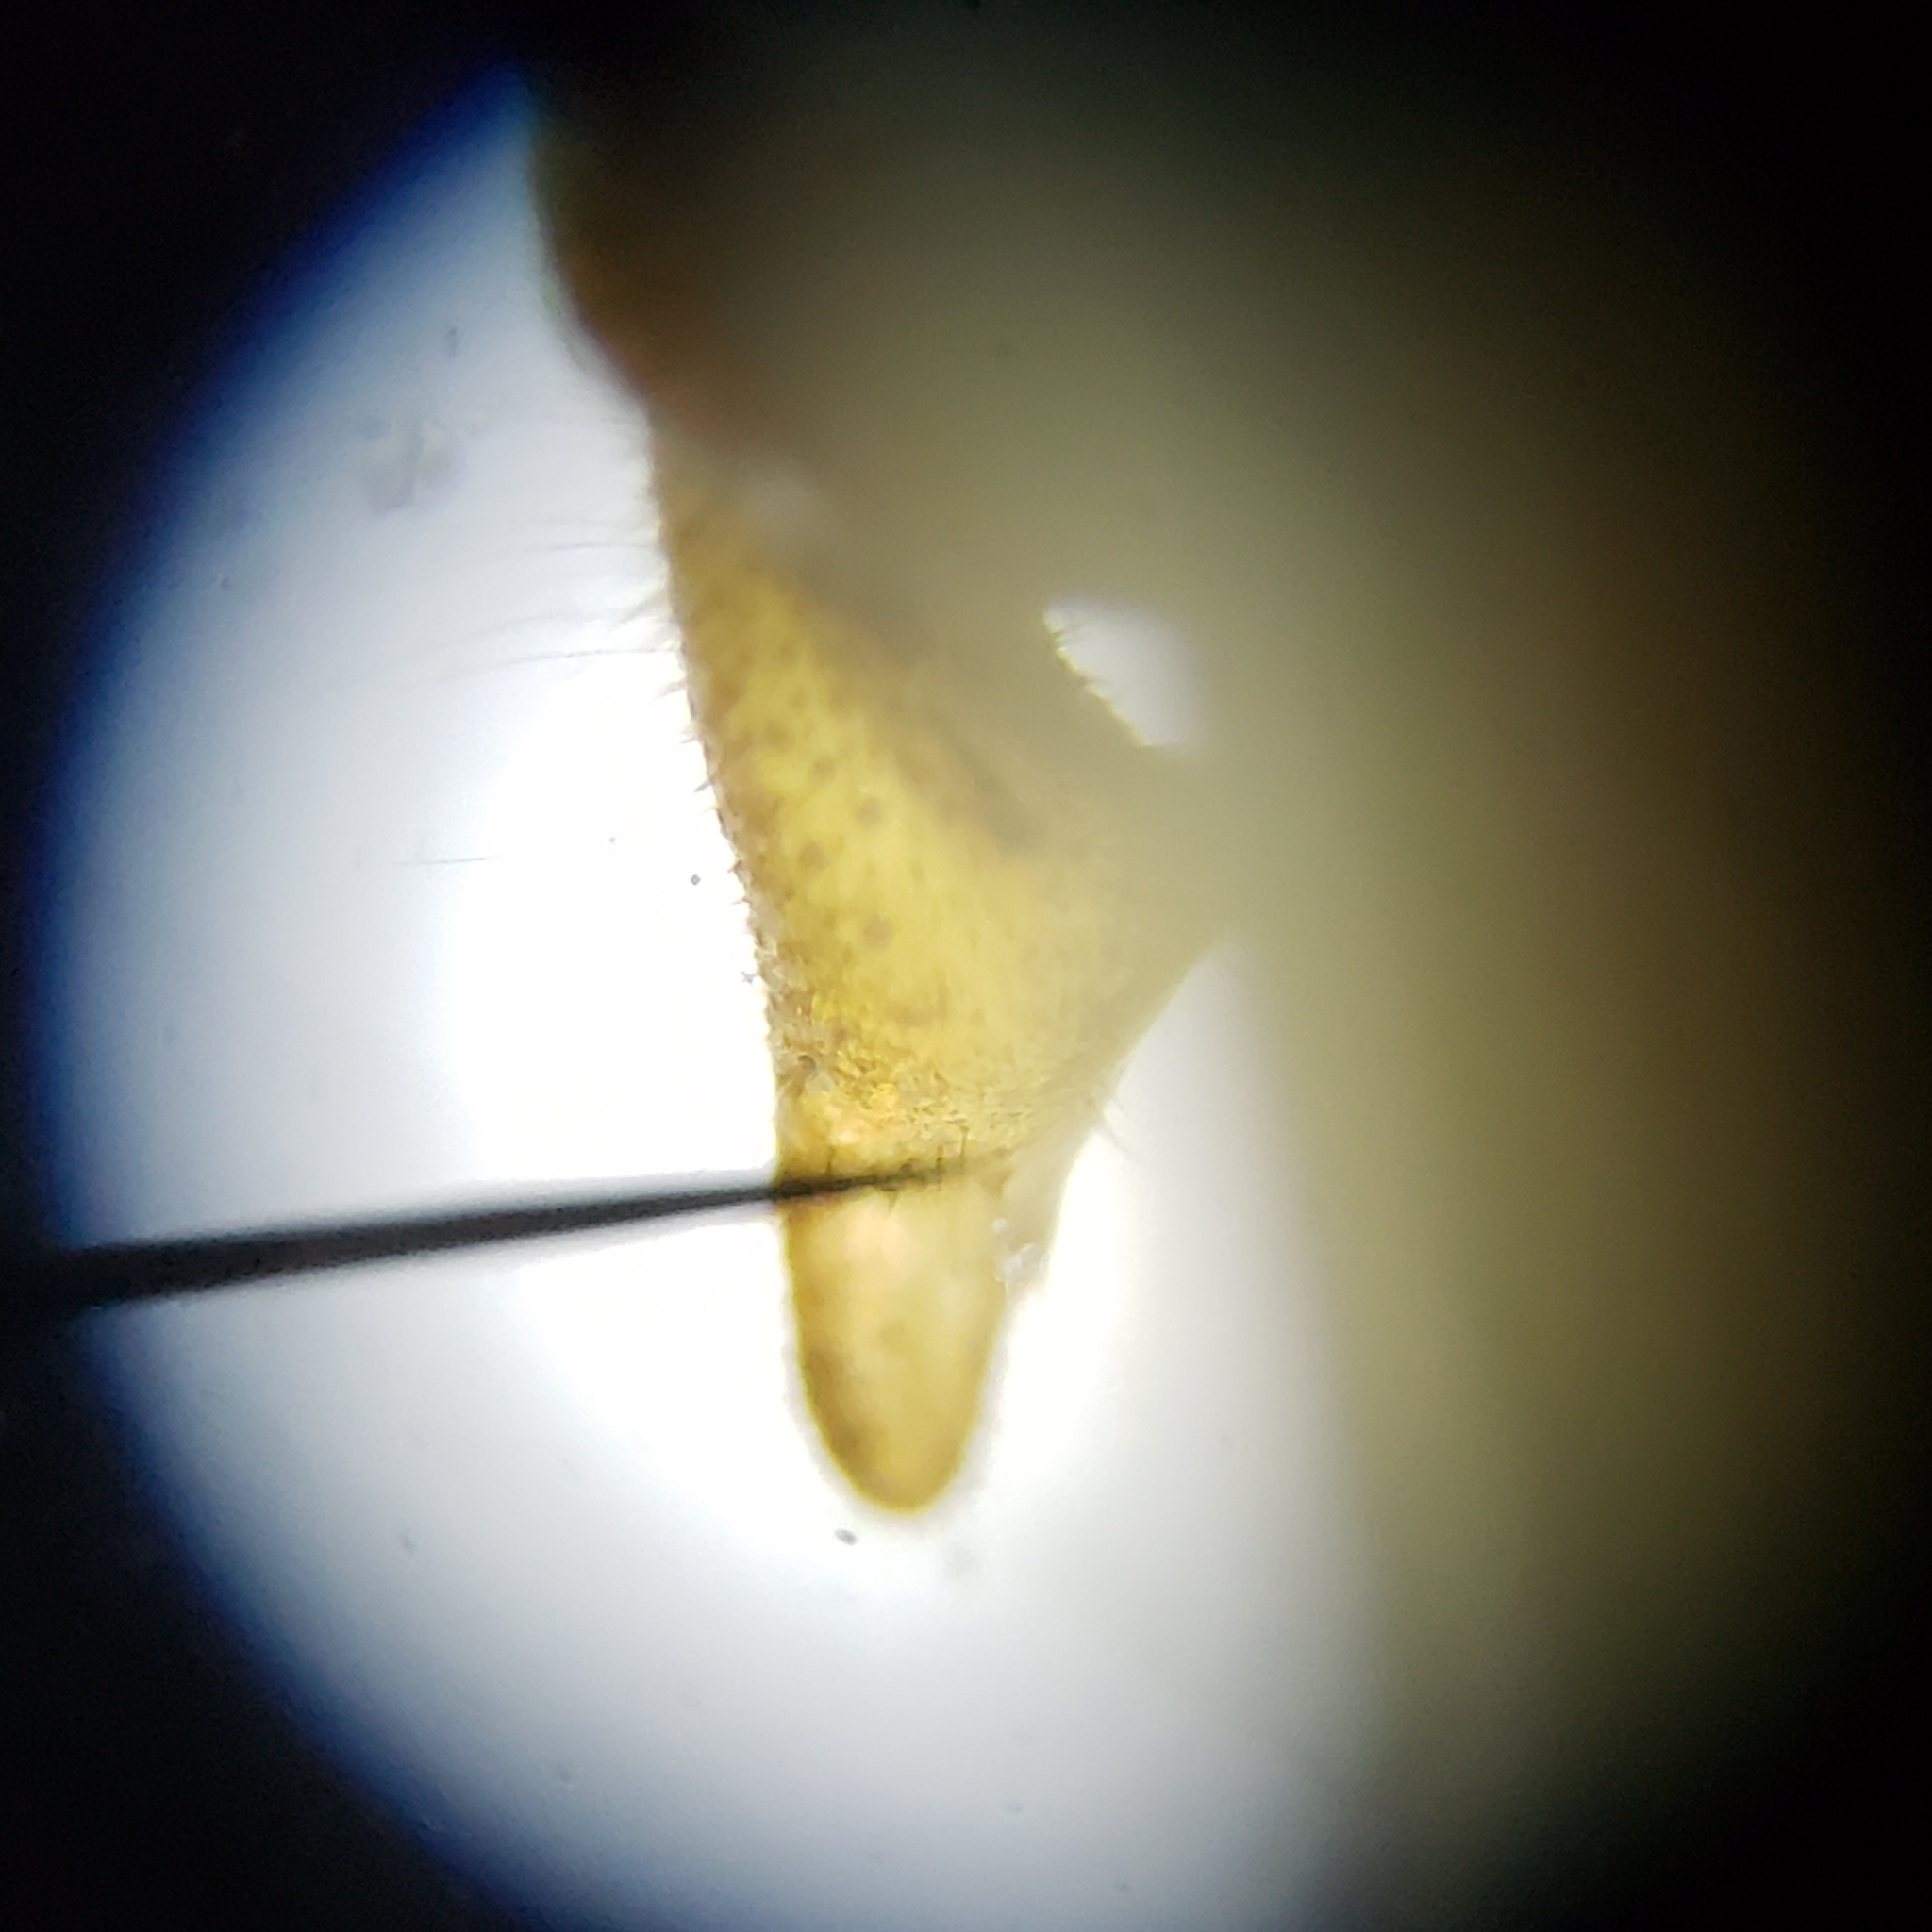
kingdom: Animalia
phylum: Arthropoda
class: Insecta
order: Orthoptera
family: Tettigoniidae
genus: Conocephalus
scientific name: Conocephalus cinereus
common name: Caribbean meadow katydid
